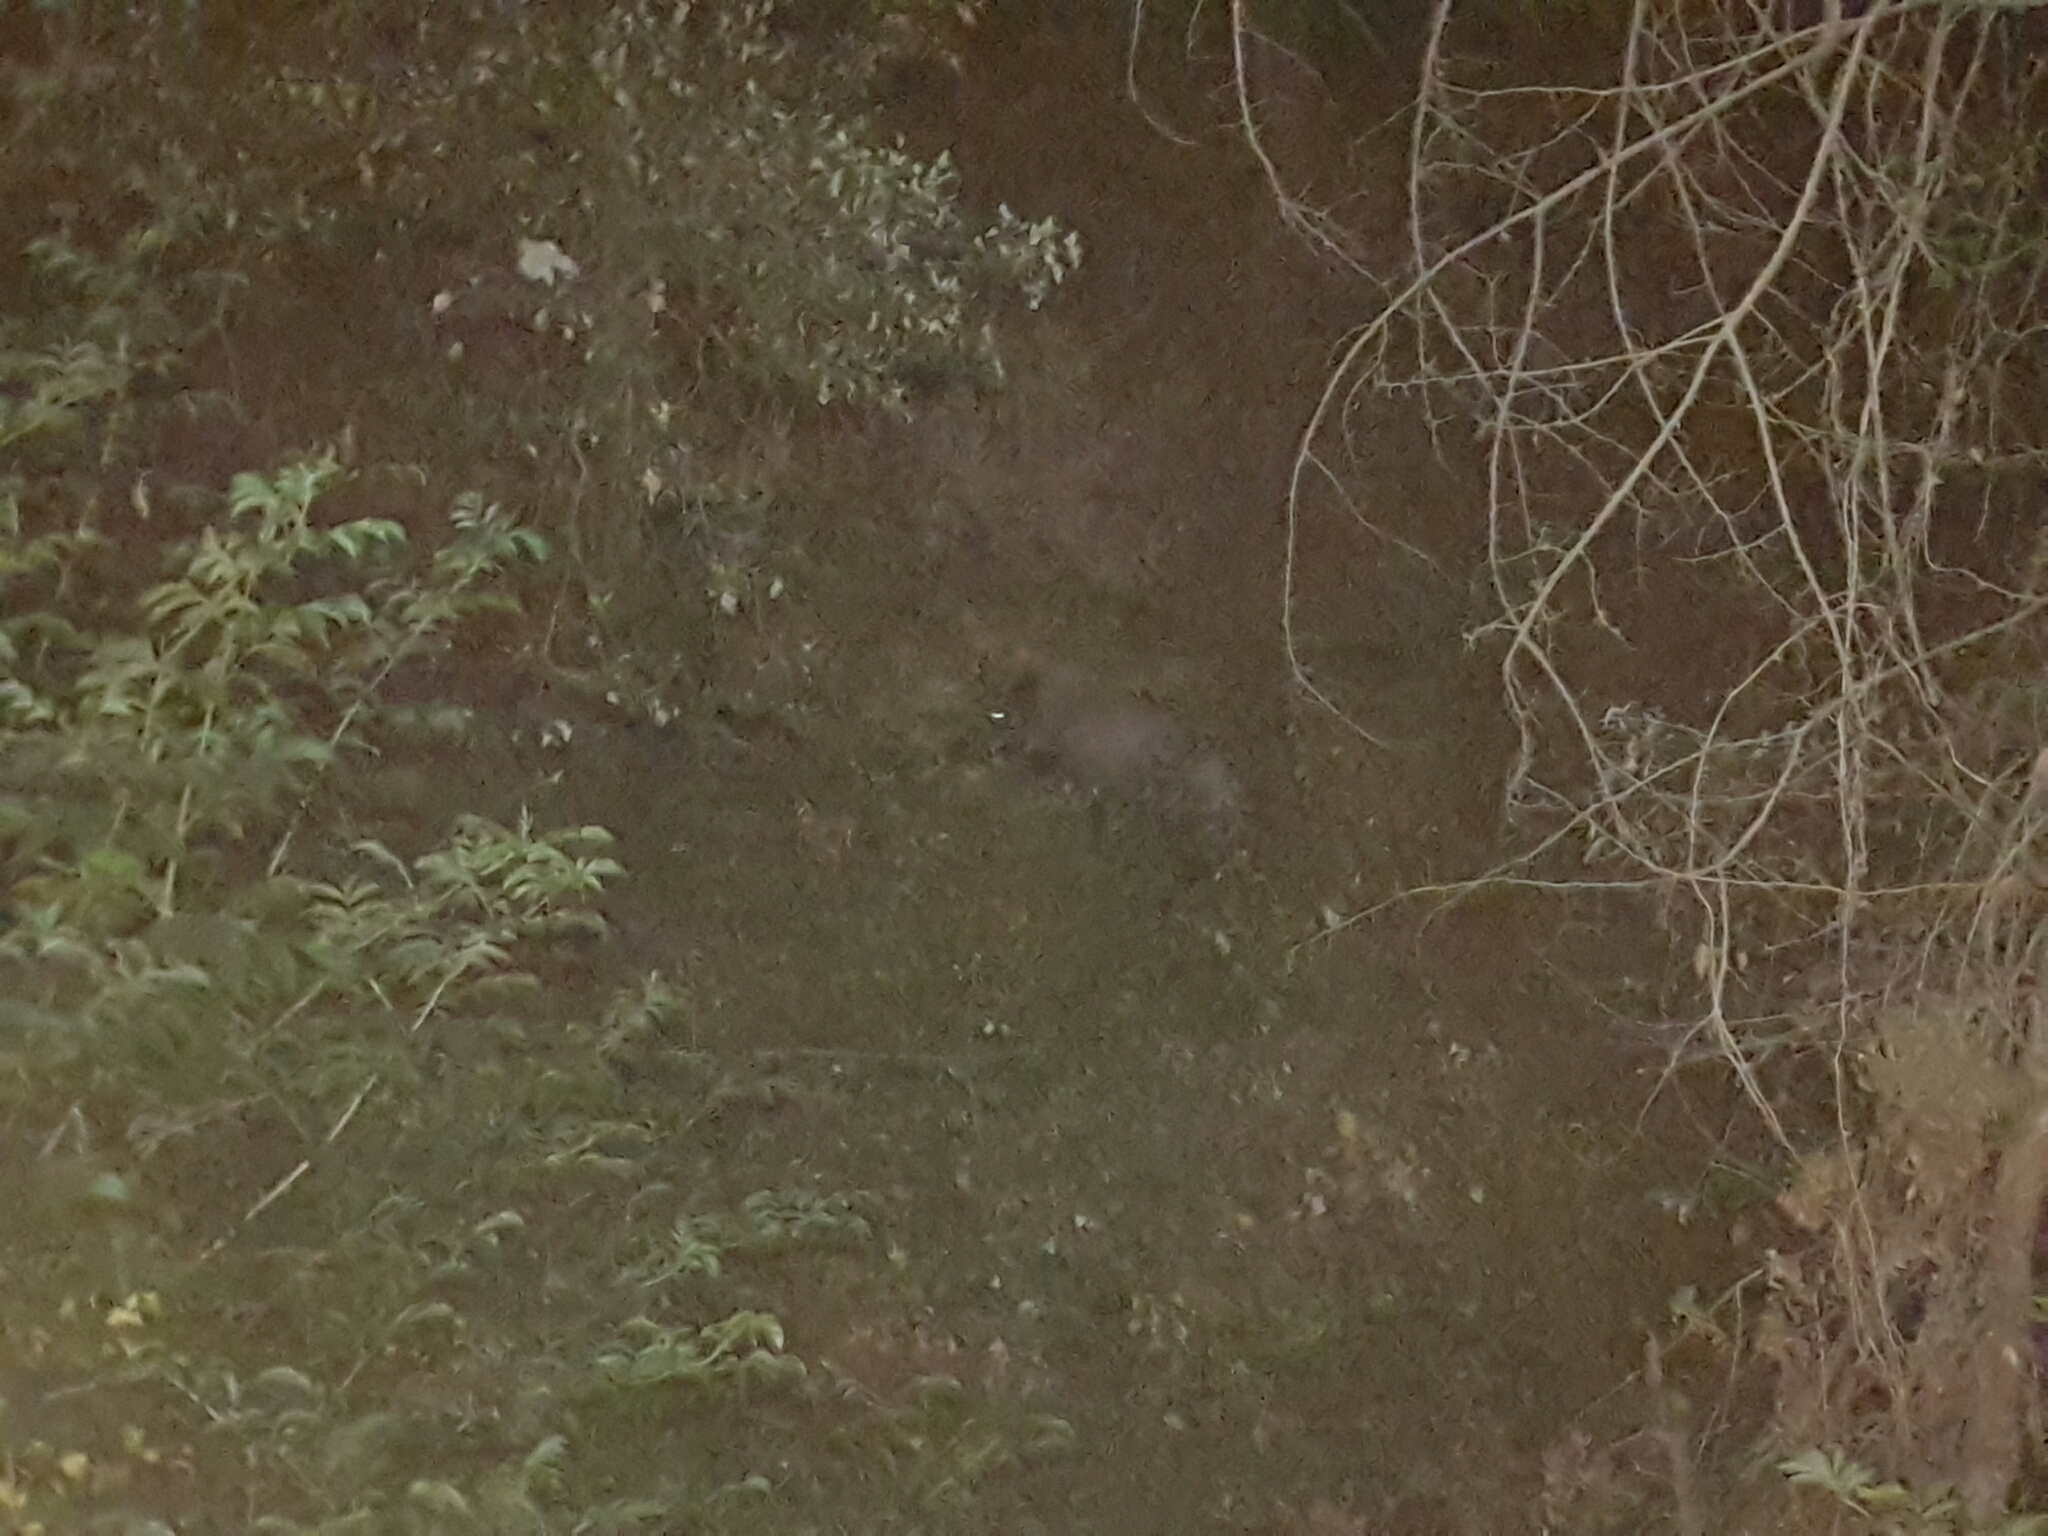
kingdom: Animalia
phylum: Chordata
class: Mammalia
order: Artiodactyla
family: Suidae
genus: Sus
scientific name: Sus scrofa
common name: Wild boar
